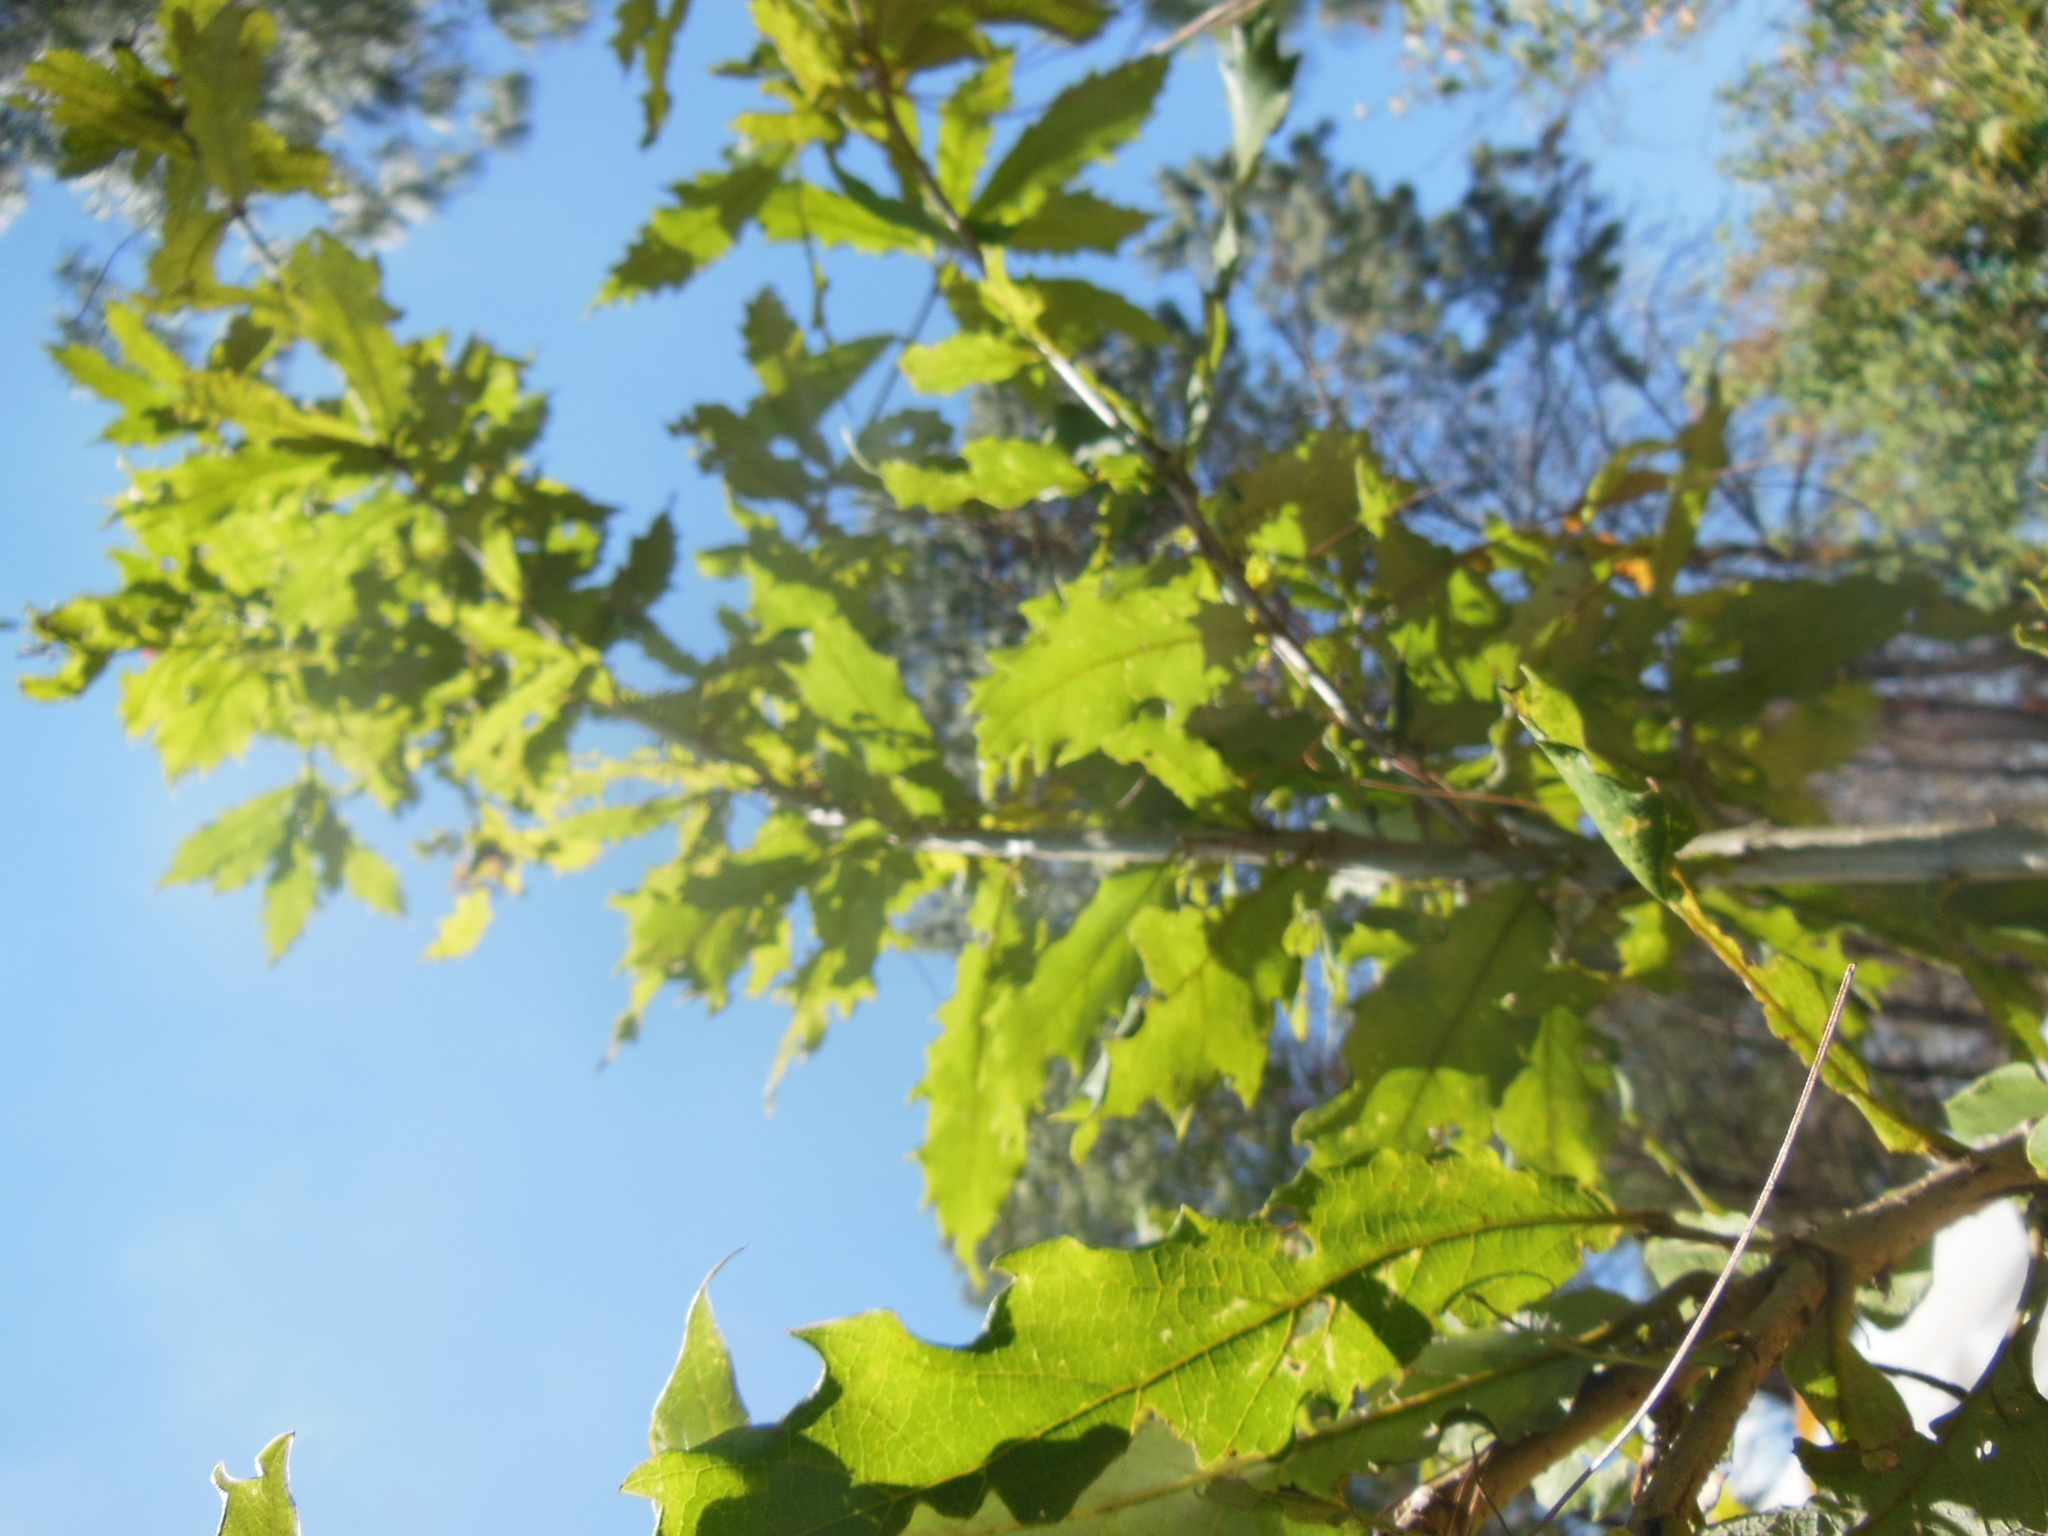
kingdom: Plantae
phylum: Tracheophyta
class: Magnoliopsida
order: Fagales
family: Fagaceae
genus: Quercus
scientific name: Quercus vicentensis
